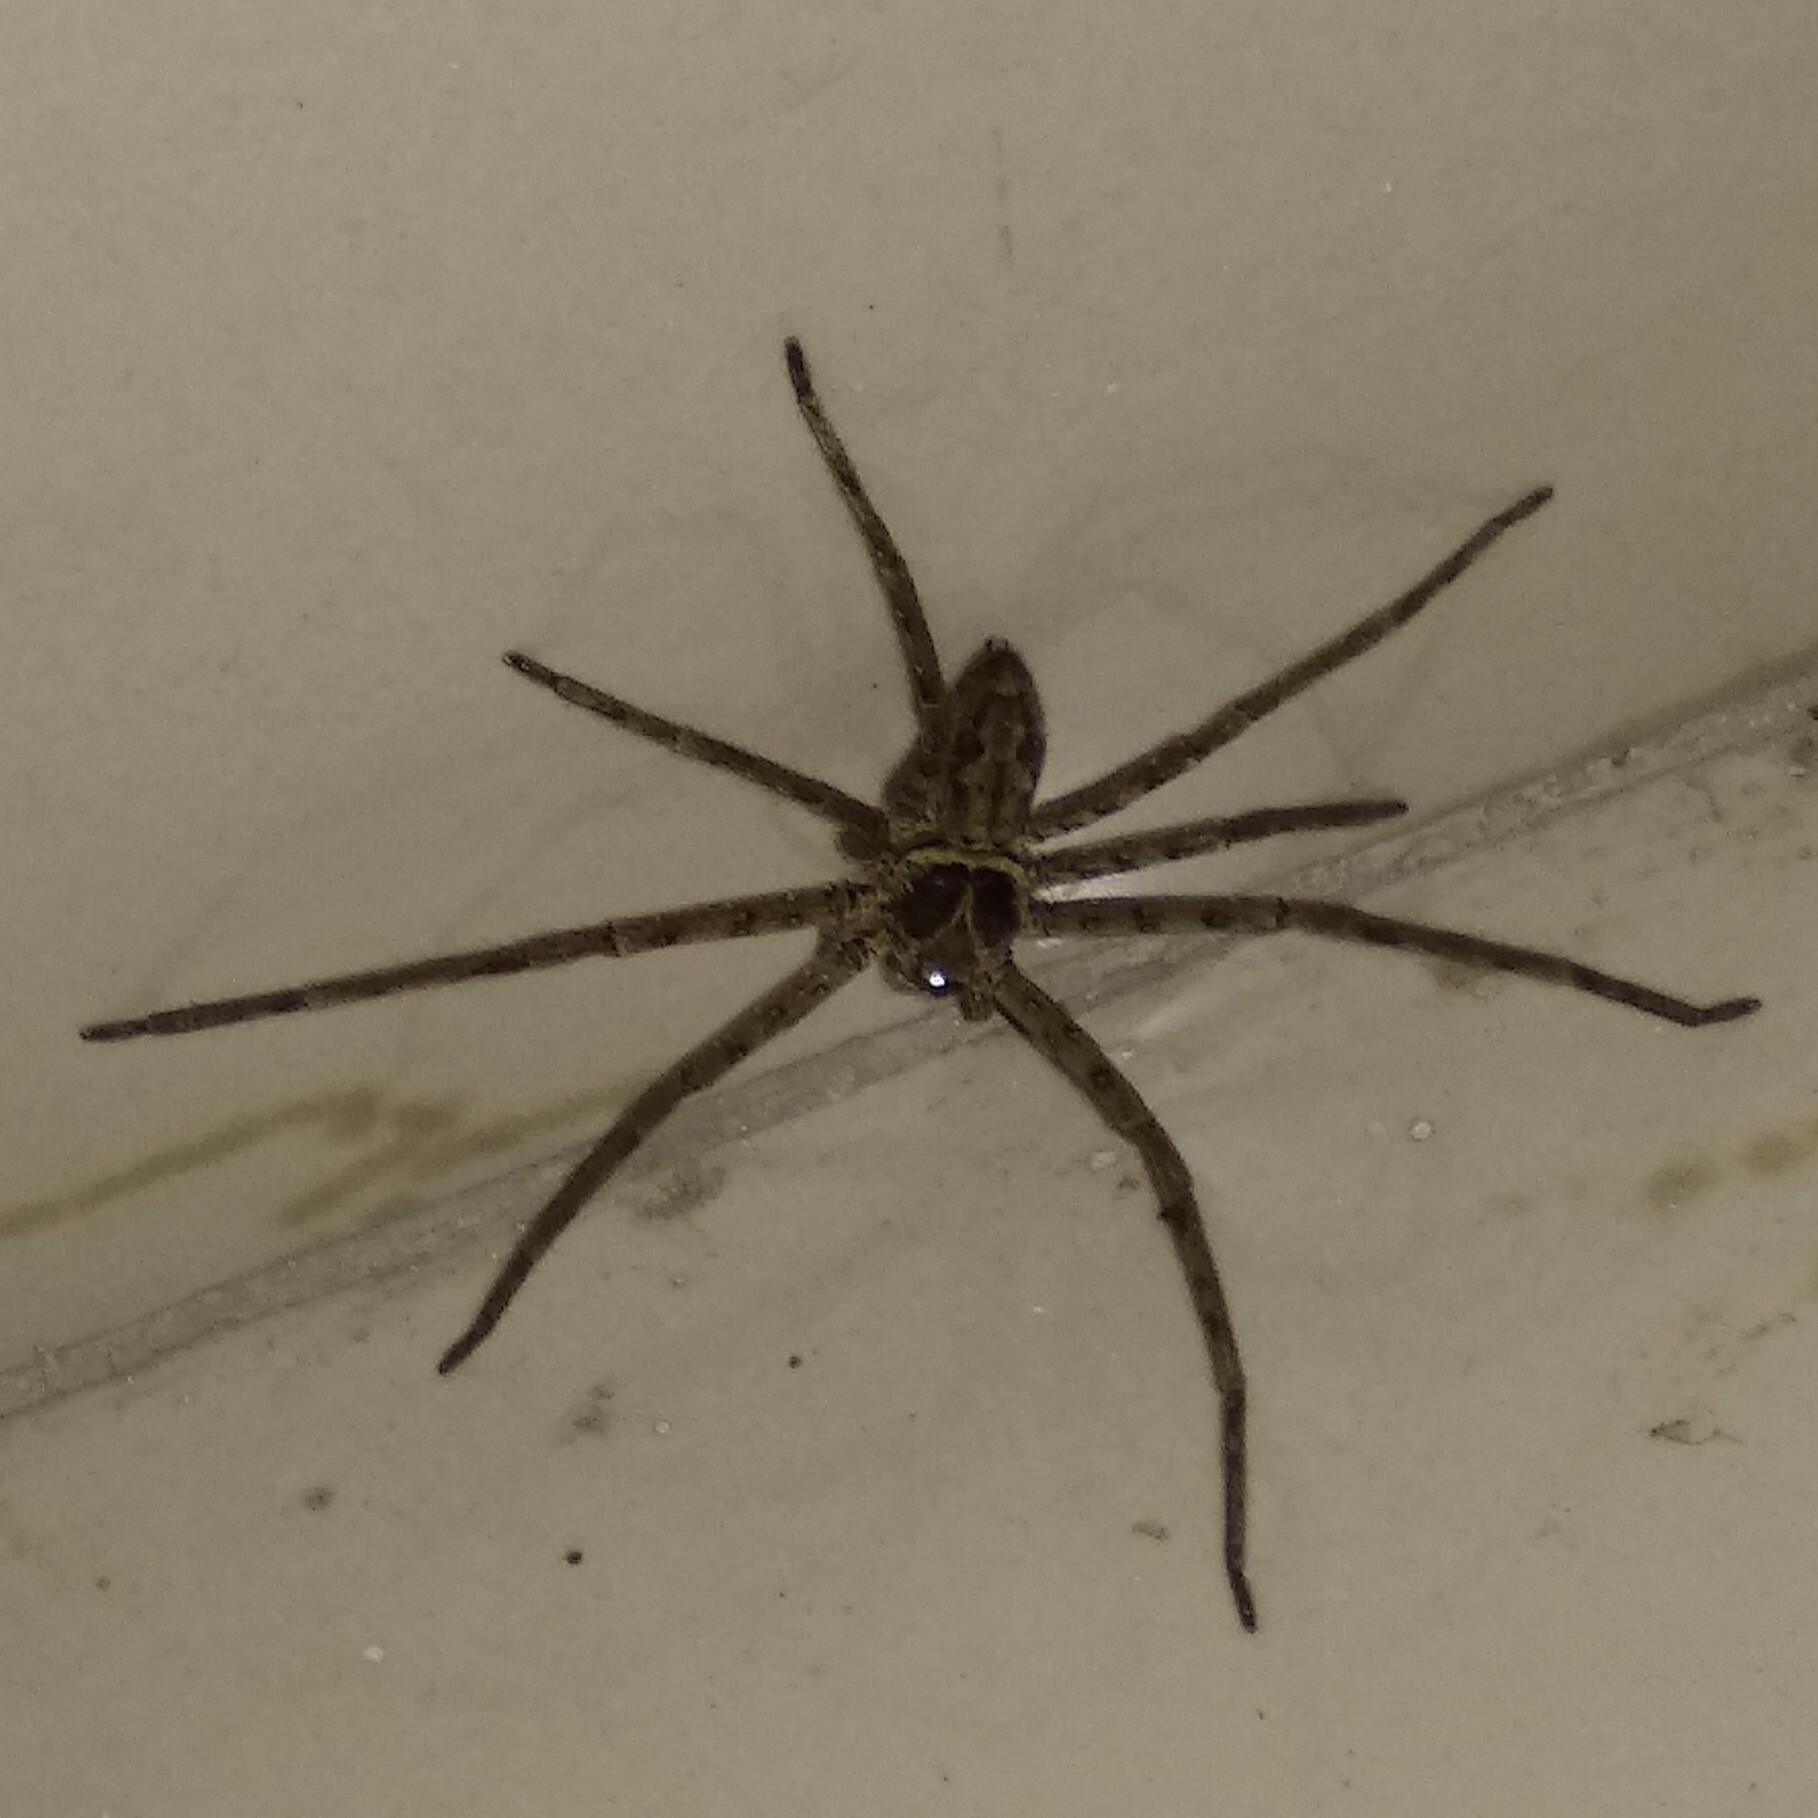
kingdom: Animalia
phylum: Arthropoda
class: Arachnida
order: Araneae
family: Sparassidae
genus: Heteropoda
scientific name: Heteropoda venatoria
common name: Huntsman spider
